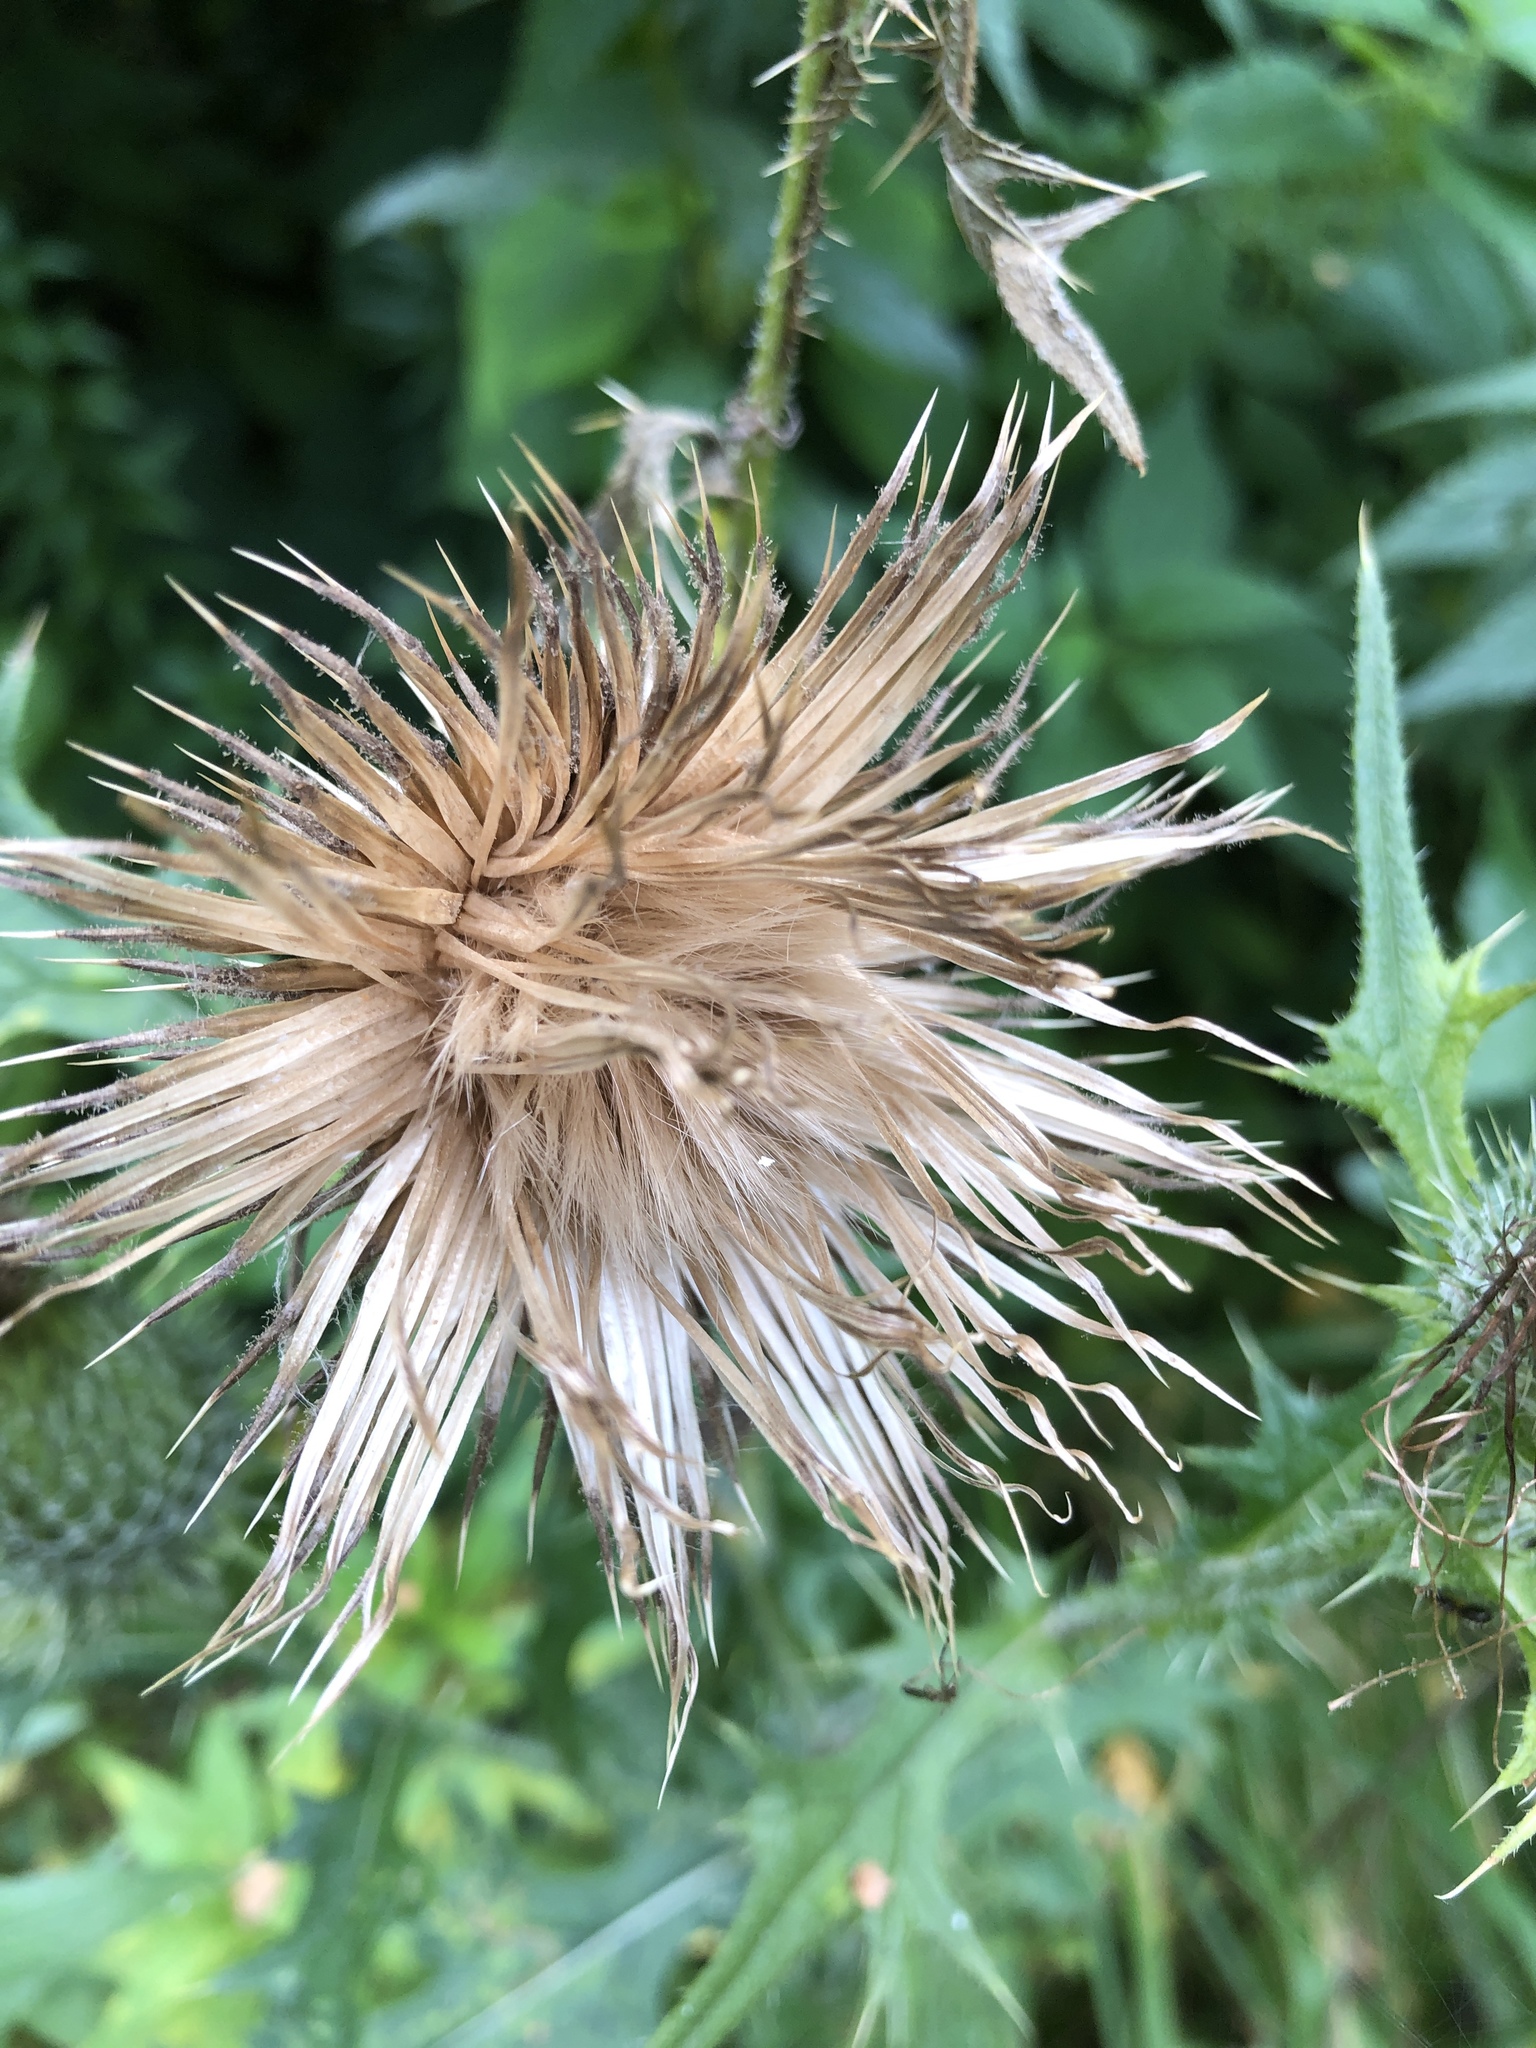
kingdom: Plantae
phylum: Tracheophyta
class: Magnoliopsida
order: Asterales
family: Asteraceae
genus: Cirsium
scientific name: Cirsium vulgare
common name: Bull thistle
